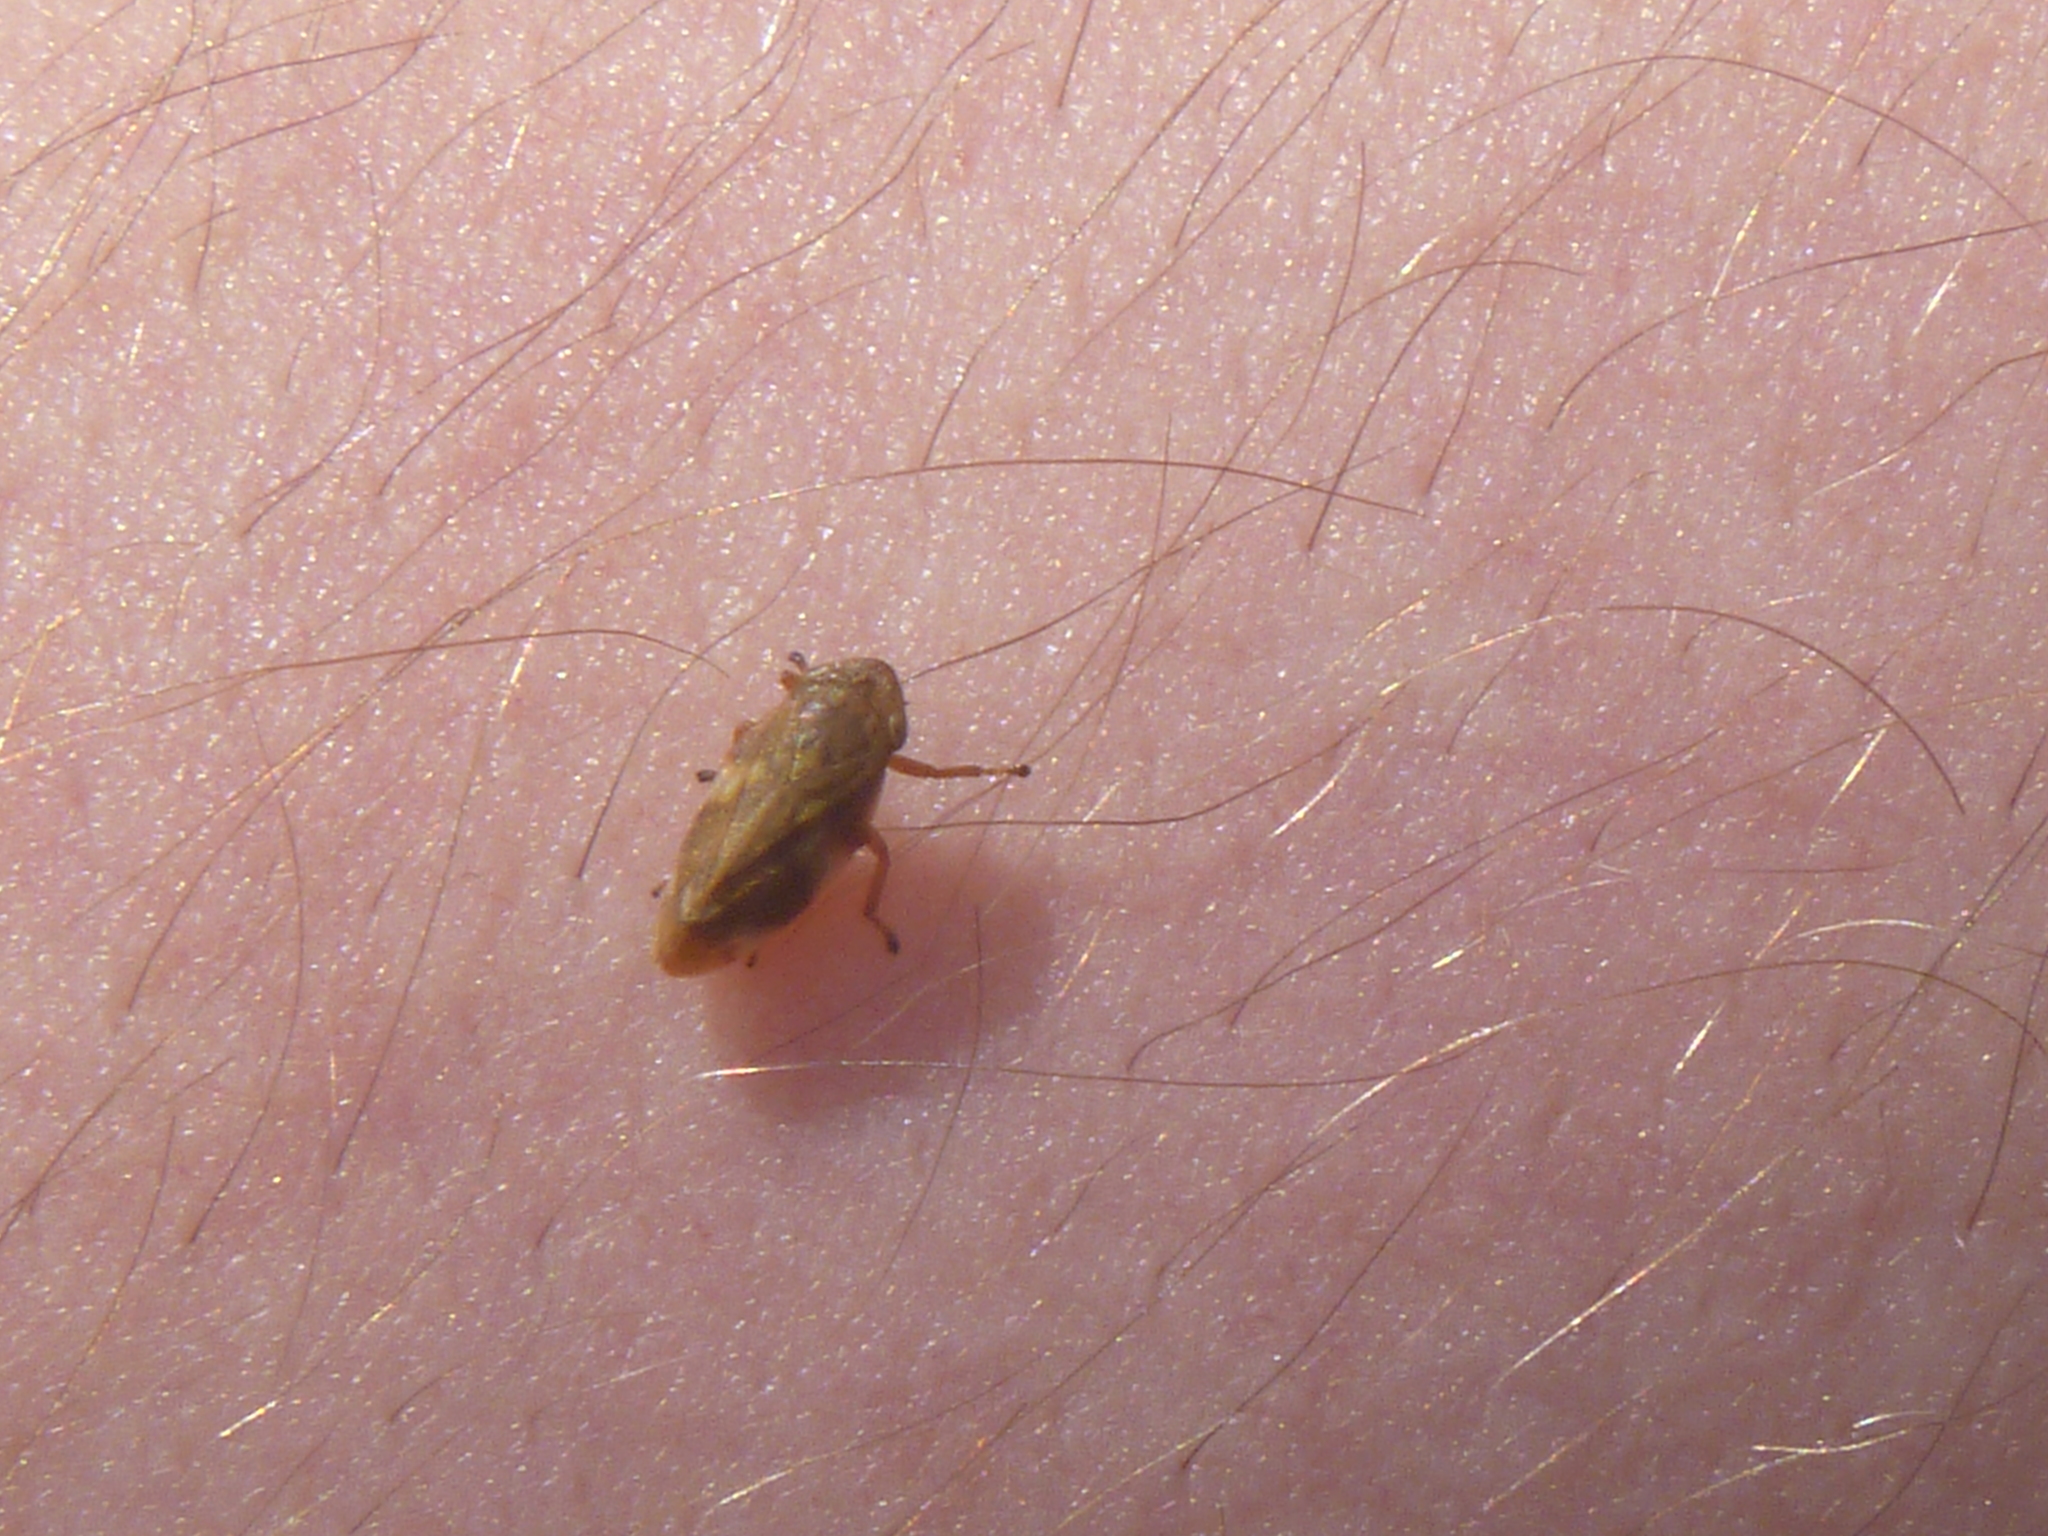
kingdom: Animalia
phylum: Arthropoda
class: Insecta
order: Hemiptera
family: Aphrophoridae
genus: Philaenus
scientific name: Philaenus spumarius
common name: Meadow spittlebug
